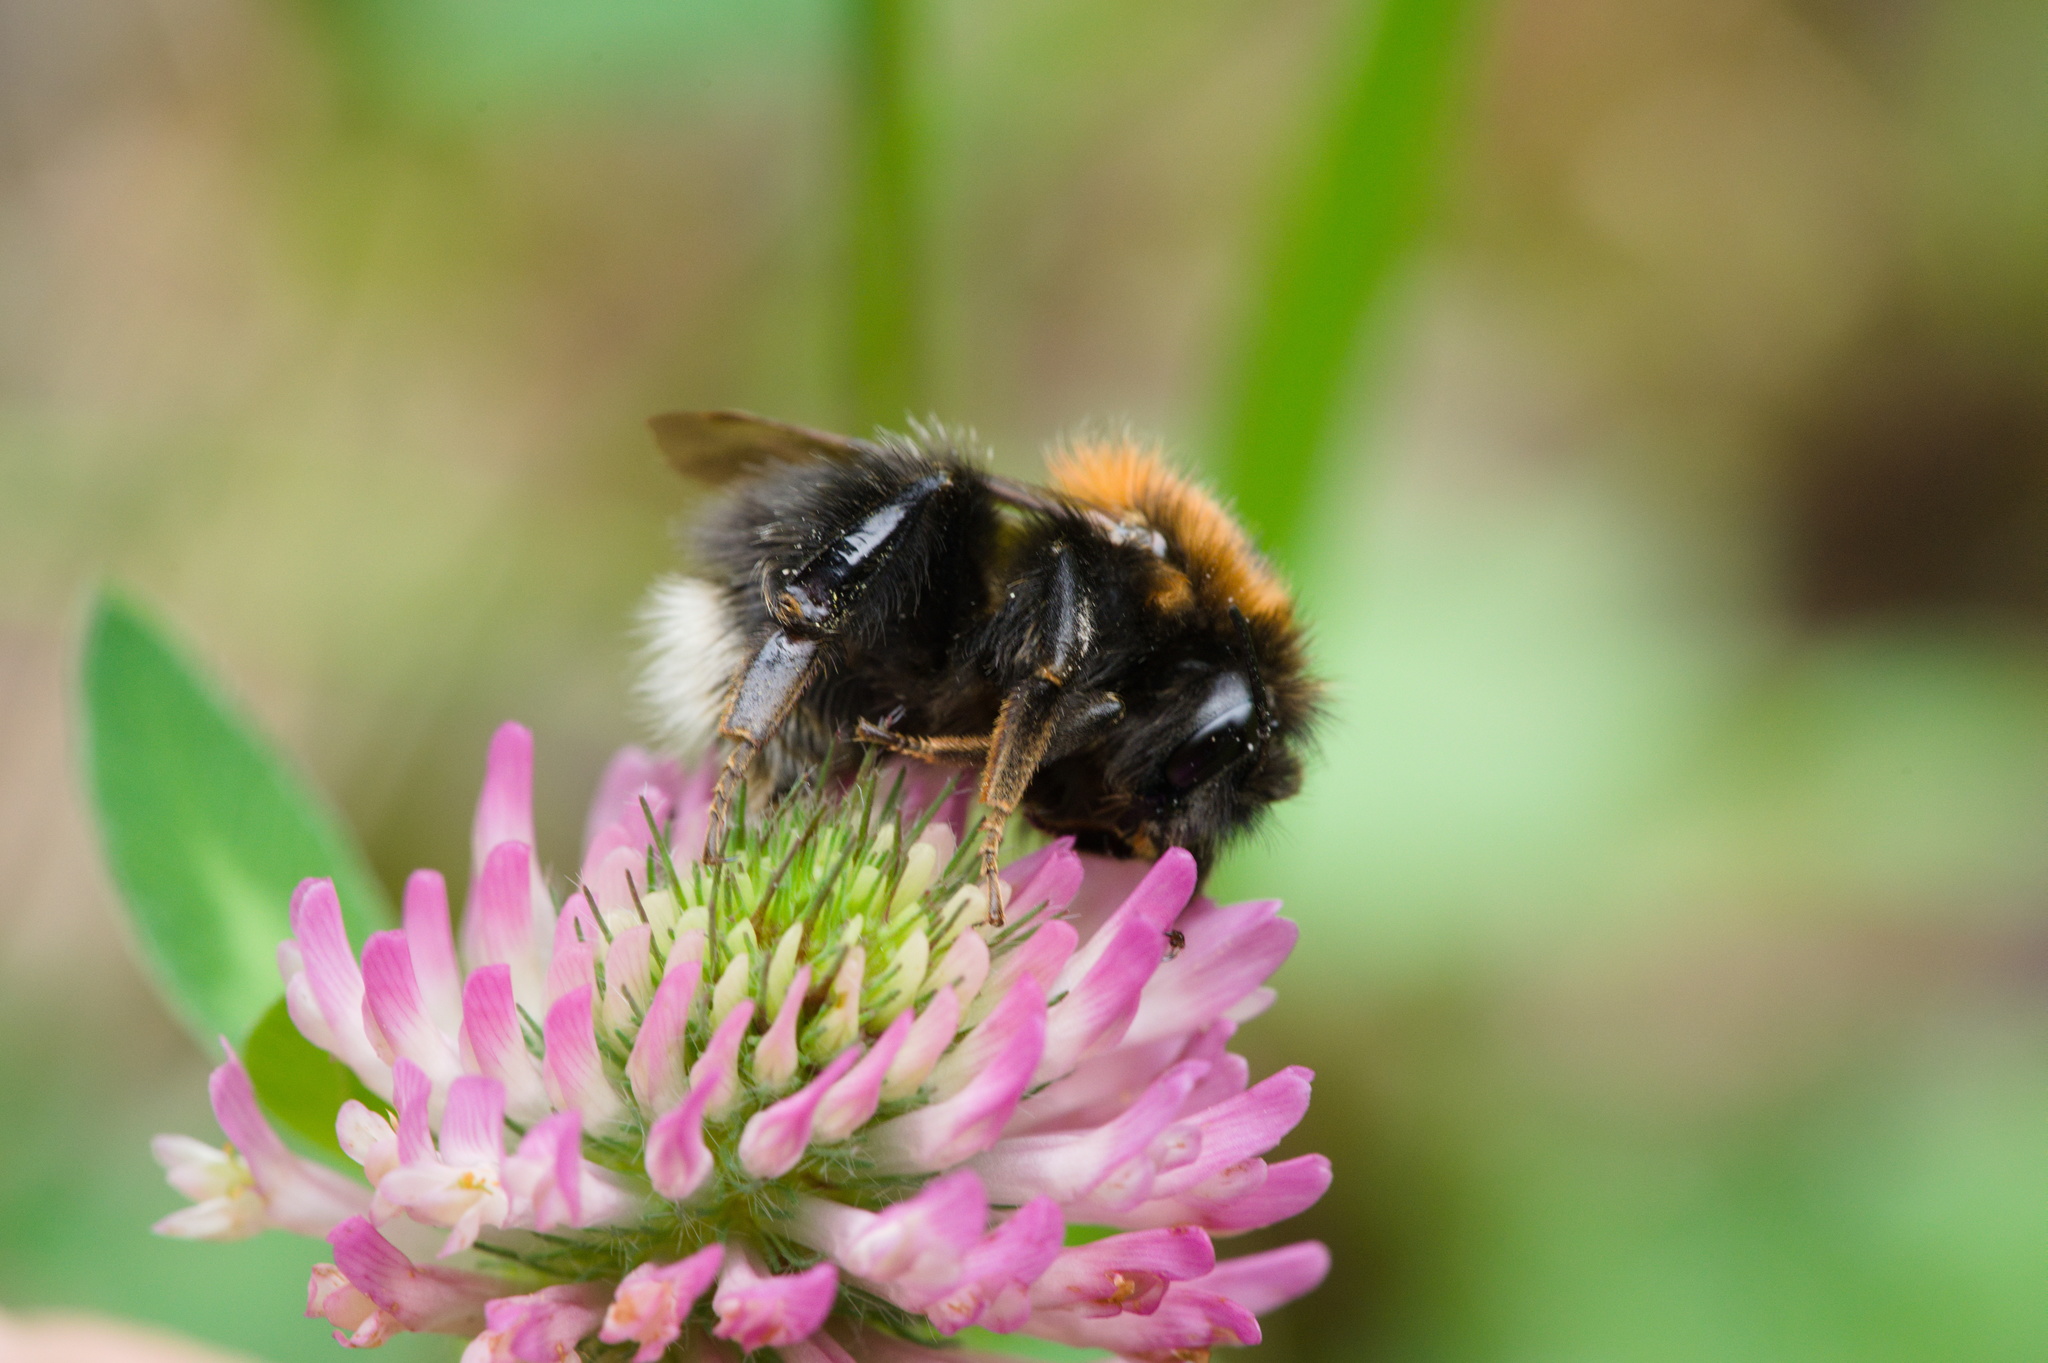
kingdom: Animalia
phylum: Arthropoda
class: Insecta
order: Hymenoptera
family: Apidae
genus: Bombus
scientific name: Bombus hypnorum
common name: New garden bumblebee
